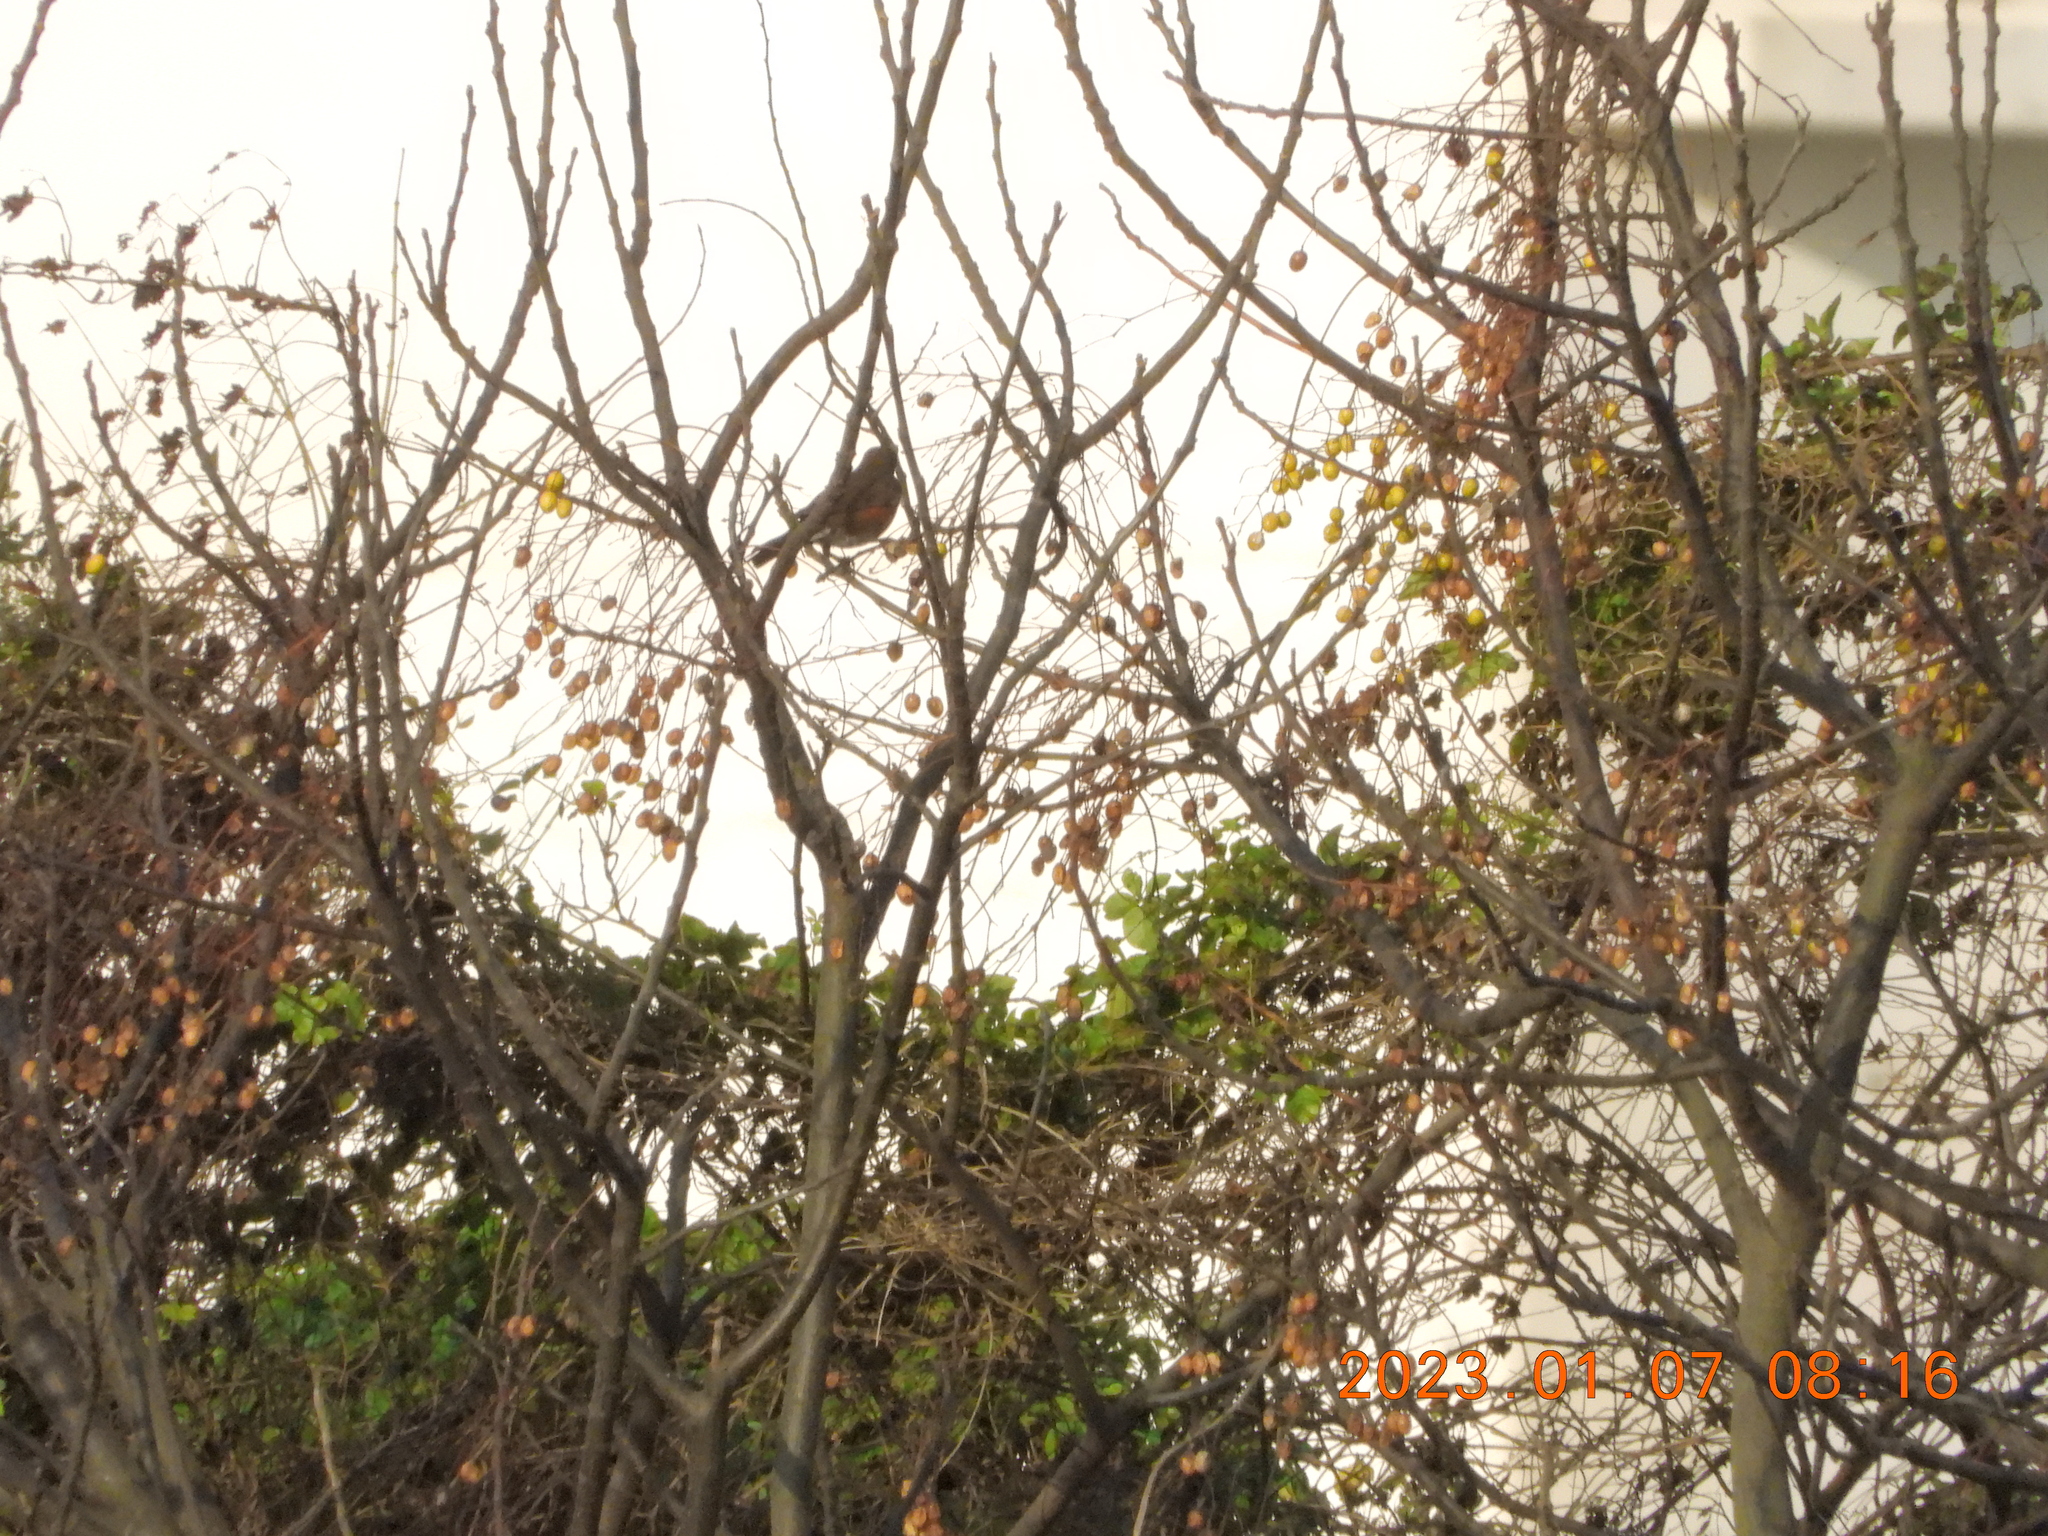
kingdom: Animalia
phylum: Chordata
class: Aves
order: Passeriformes
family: Turdidae
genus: Turdus
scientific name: Turdus chrysolaus
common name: Brown-headed thrush
